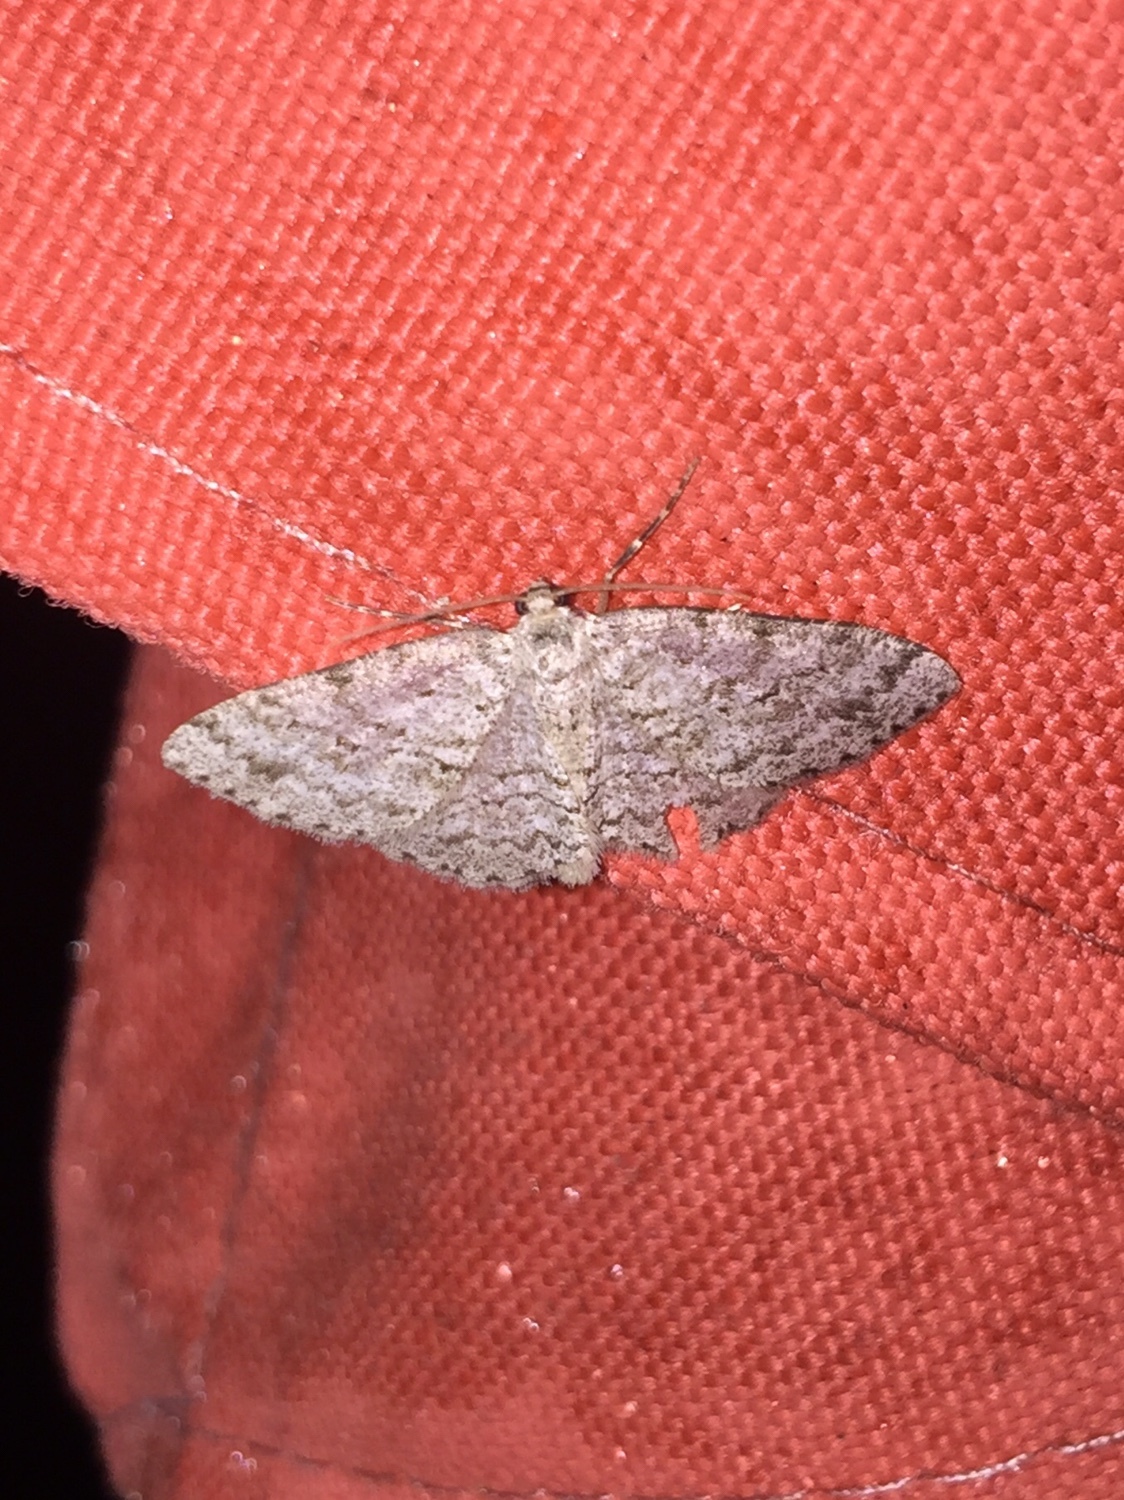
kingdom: Animalia
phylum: Arthropoda
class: Insecta
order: Lepidoptera
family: Geometridae
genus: Ectropis
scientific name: Ectropis crepuscularia
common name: Engrailed
